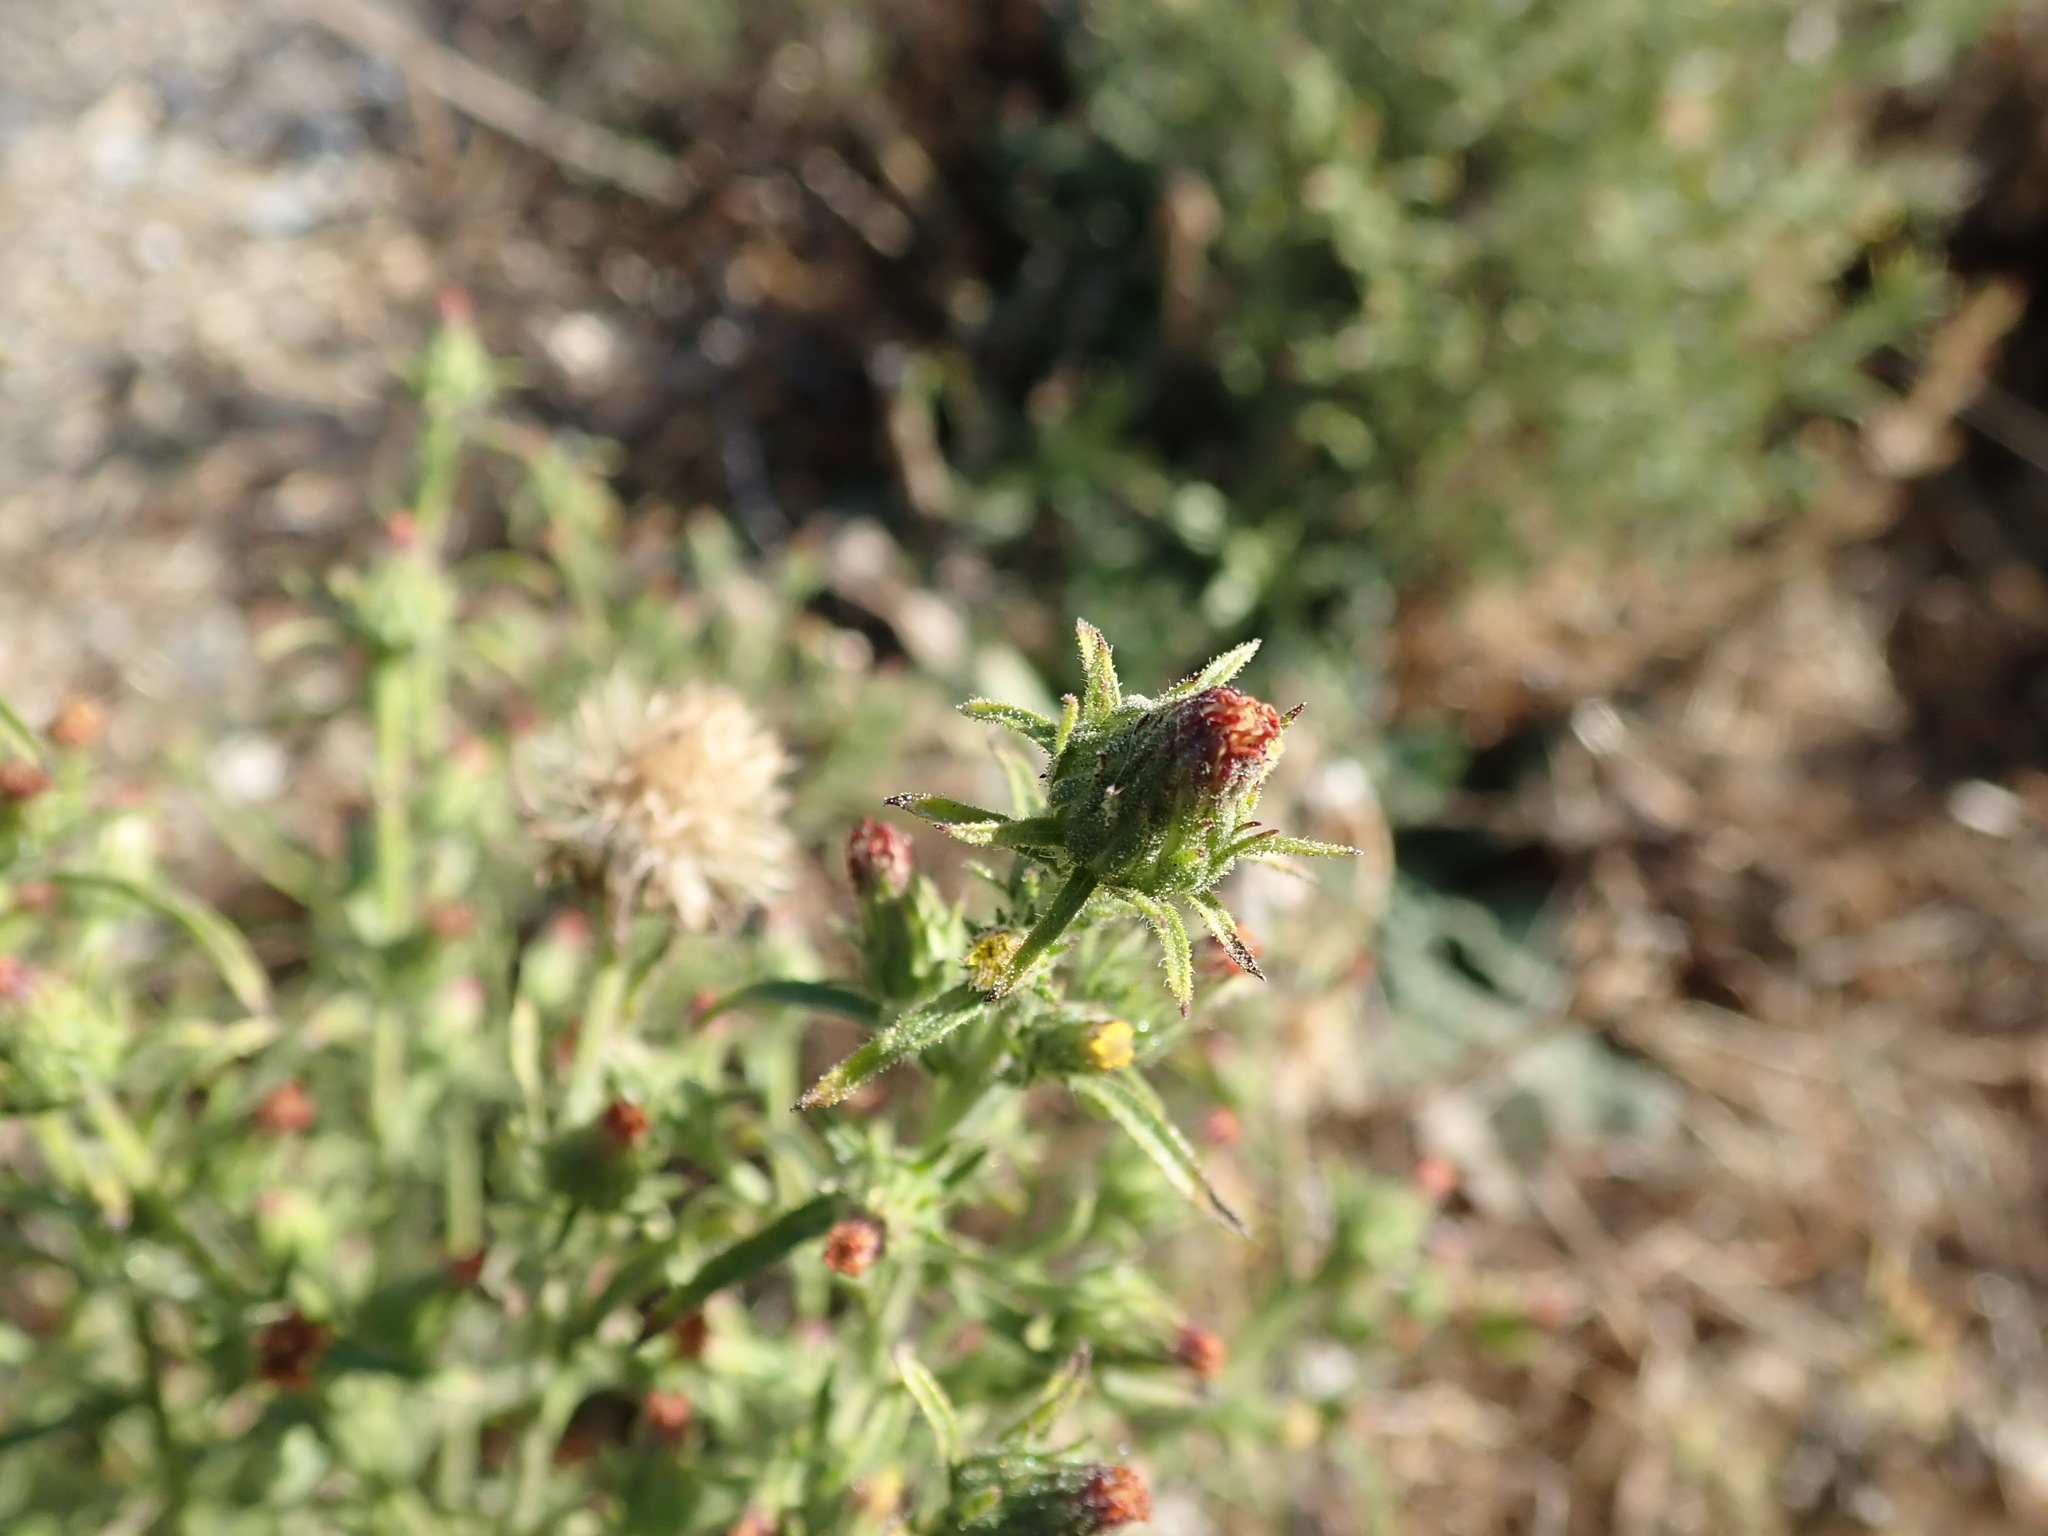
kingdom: Plantae
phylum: Tracheophyta
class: Magnoliopsida
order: Asterales
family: Asteraceae
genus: Dittrichia
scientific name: Dittrichia graveolens
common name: Stinking fleabane
